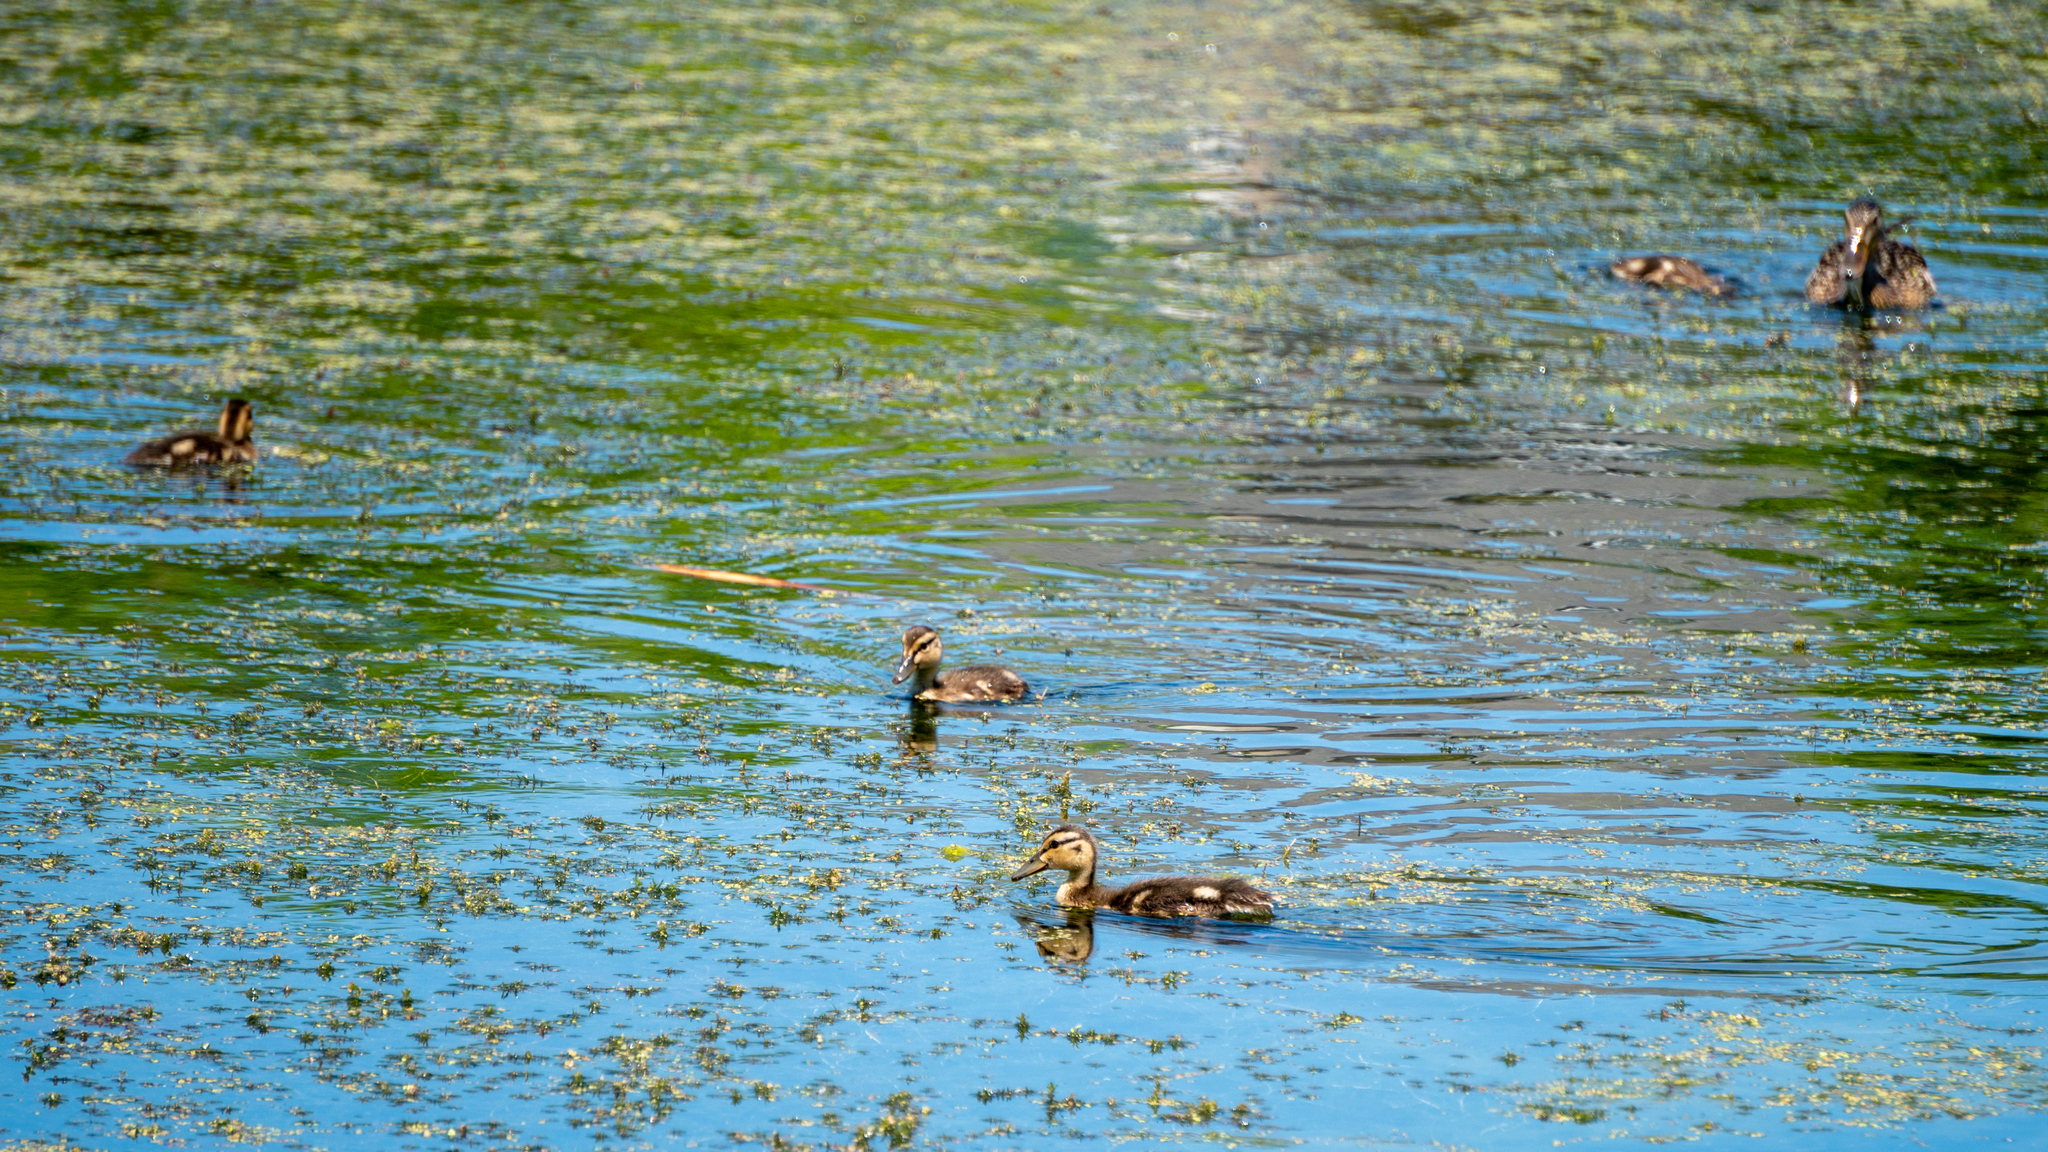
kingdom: Animalia
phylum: Chordata
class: Aves
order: Anseriformes
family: Anatidae
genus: Anas
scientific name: Anas platyrhynchos
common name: Mallard
